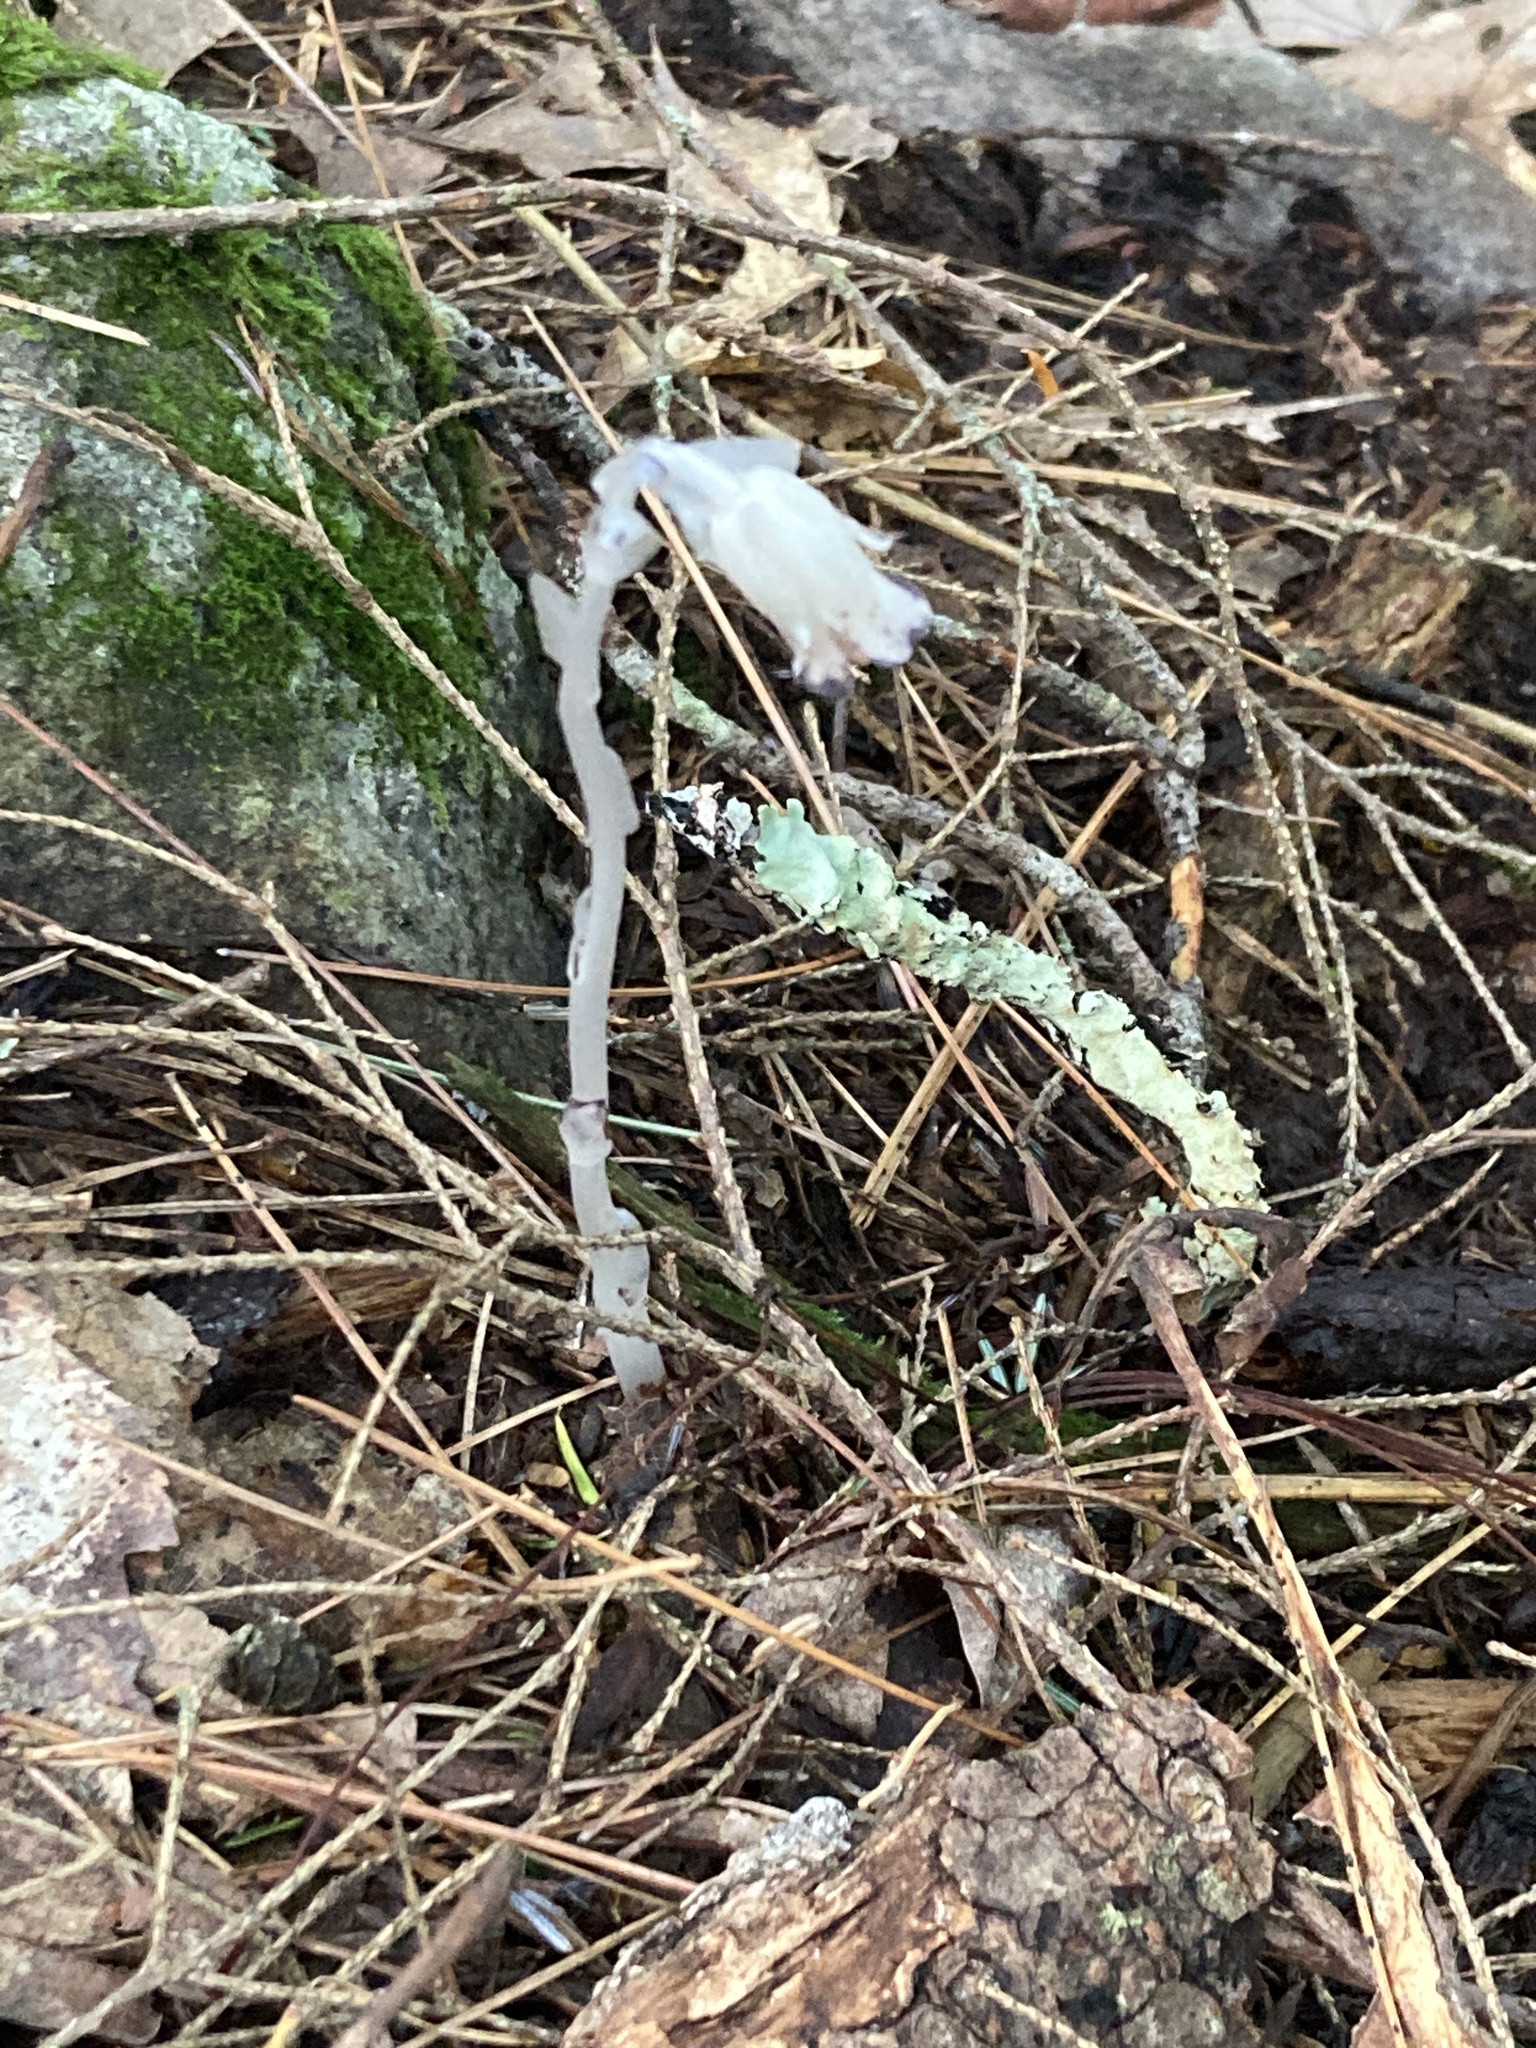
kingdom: Plantae
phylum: Tracheophyta
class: Magnoliopsida
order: Ericales
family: Ericaceae
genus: Monotropa
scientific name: Monotropa uniflora
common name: Convulsion root
